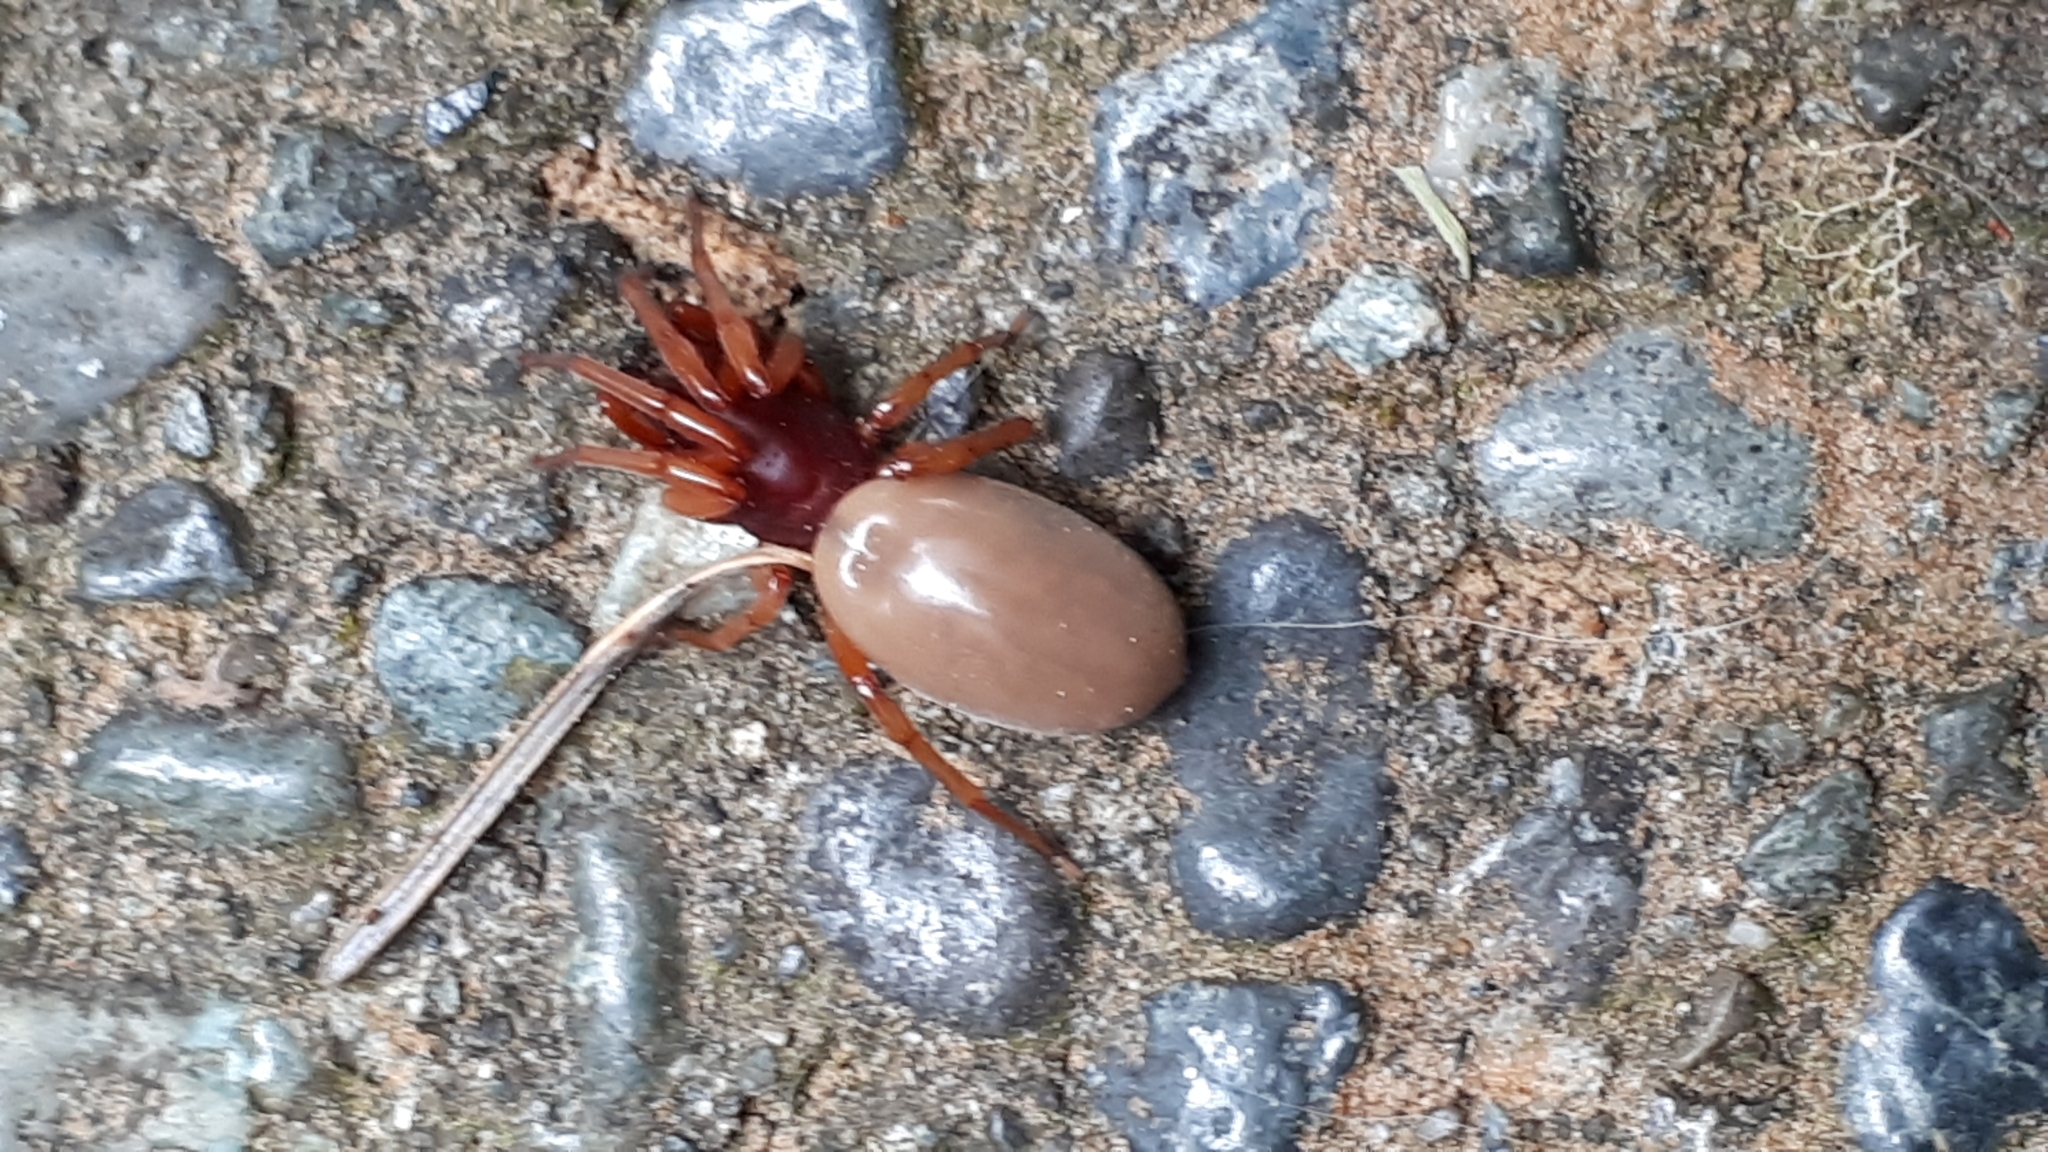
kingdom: Animalia
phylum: Arthropoda
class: Arachnida
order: Araneae
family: Dysderidae
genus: Dysdera
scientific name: Dysdera crocata
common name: Woodlouse spider
